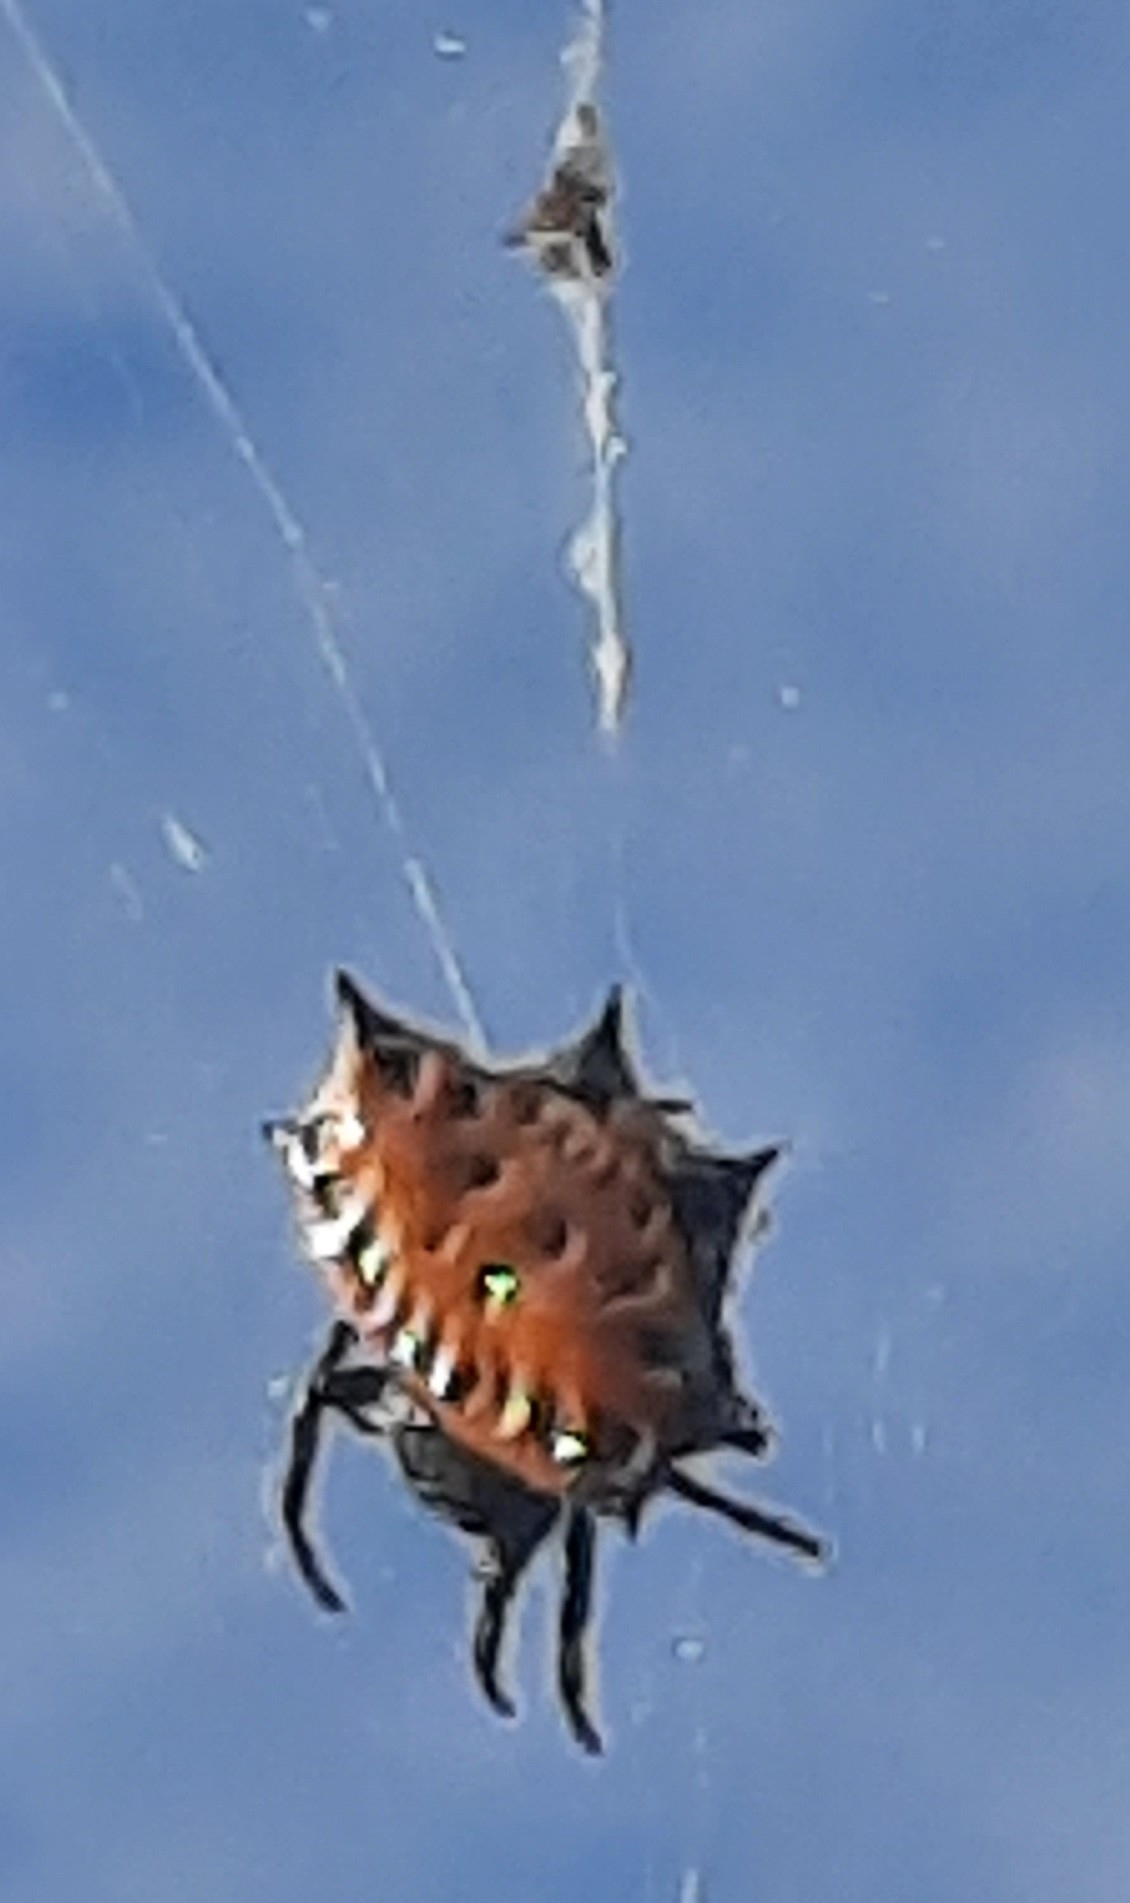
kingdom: Animalia
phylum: Arthropoda
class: Arachnida
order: Araneae
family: Araneidae
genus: Gasteracantha
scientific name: Gasteracantha cancriformis
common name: Orb weavers
